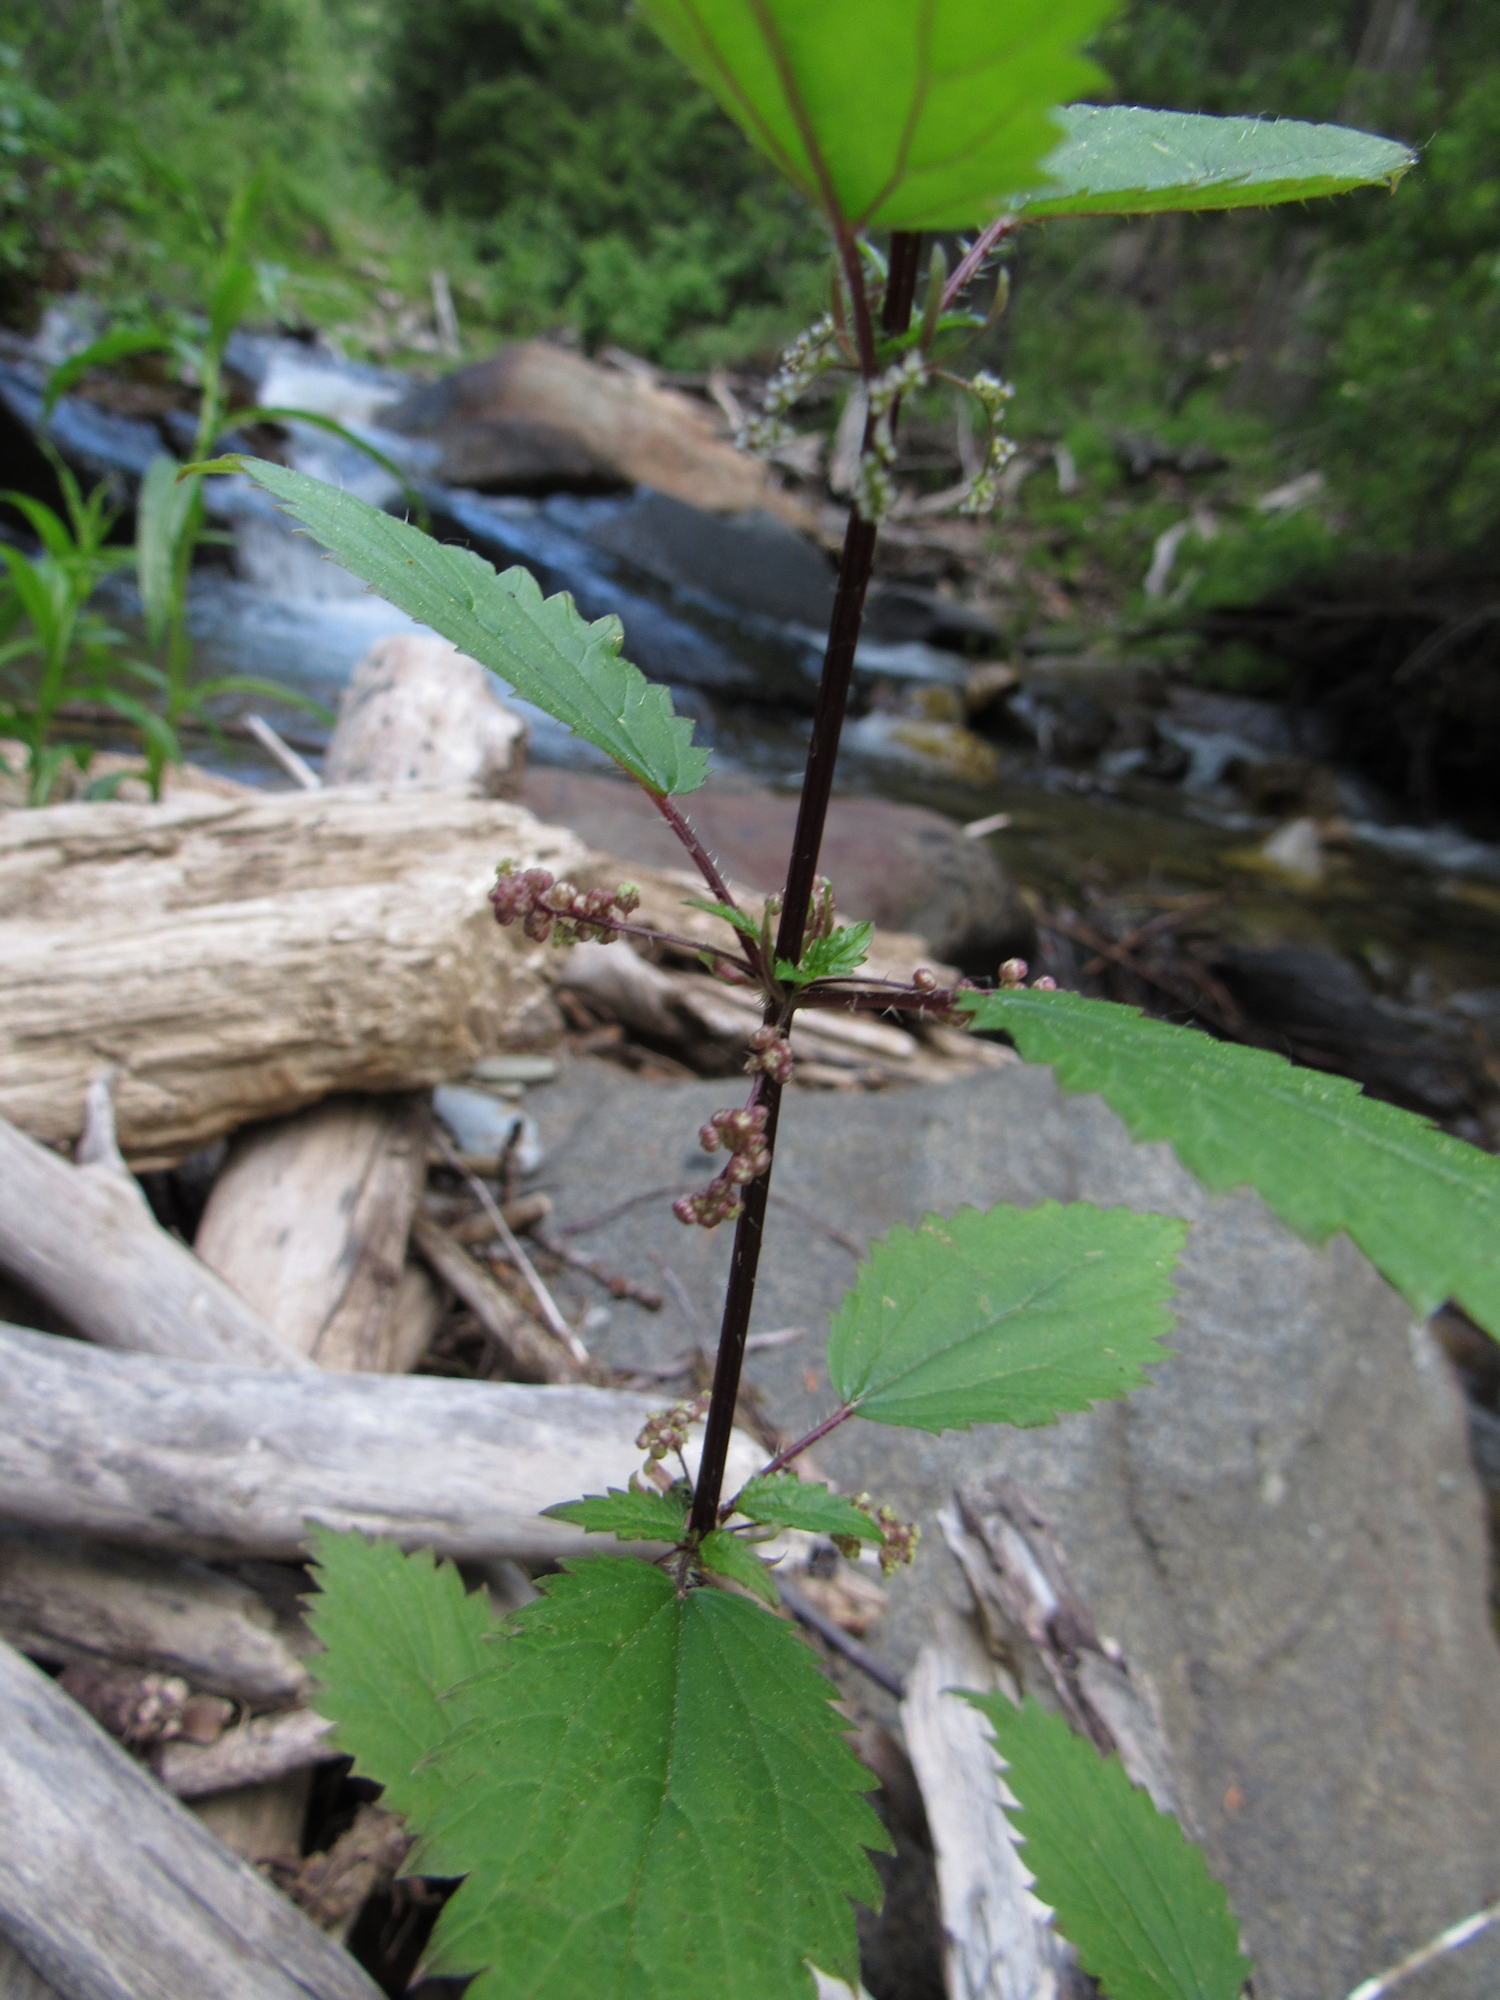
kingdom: Plantae
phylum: Tracheophyta
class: Magnoliopsida
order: Rosales
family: Urticaceae
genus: Urtica
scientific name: Urtica gracilis
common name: Slender stinging nettle
